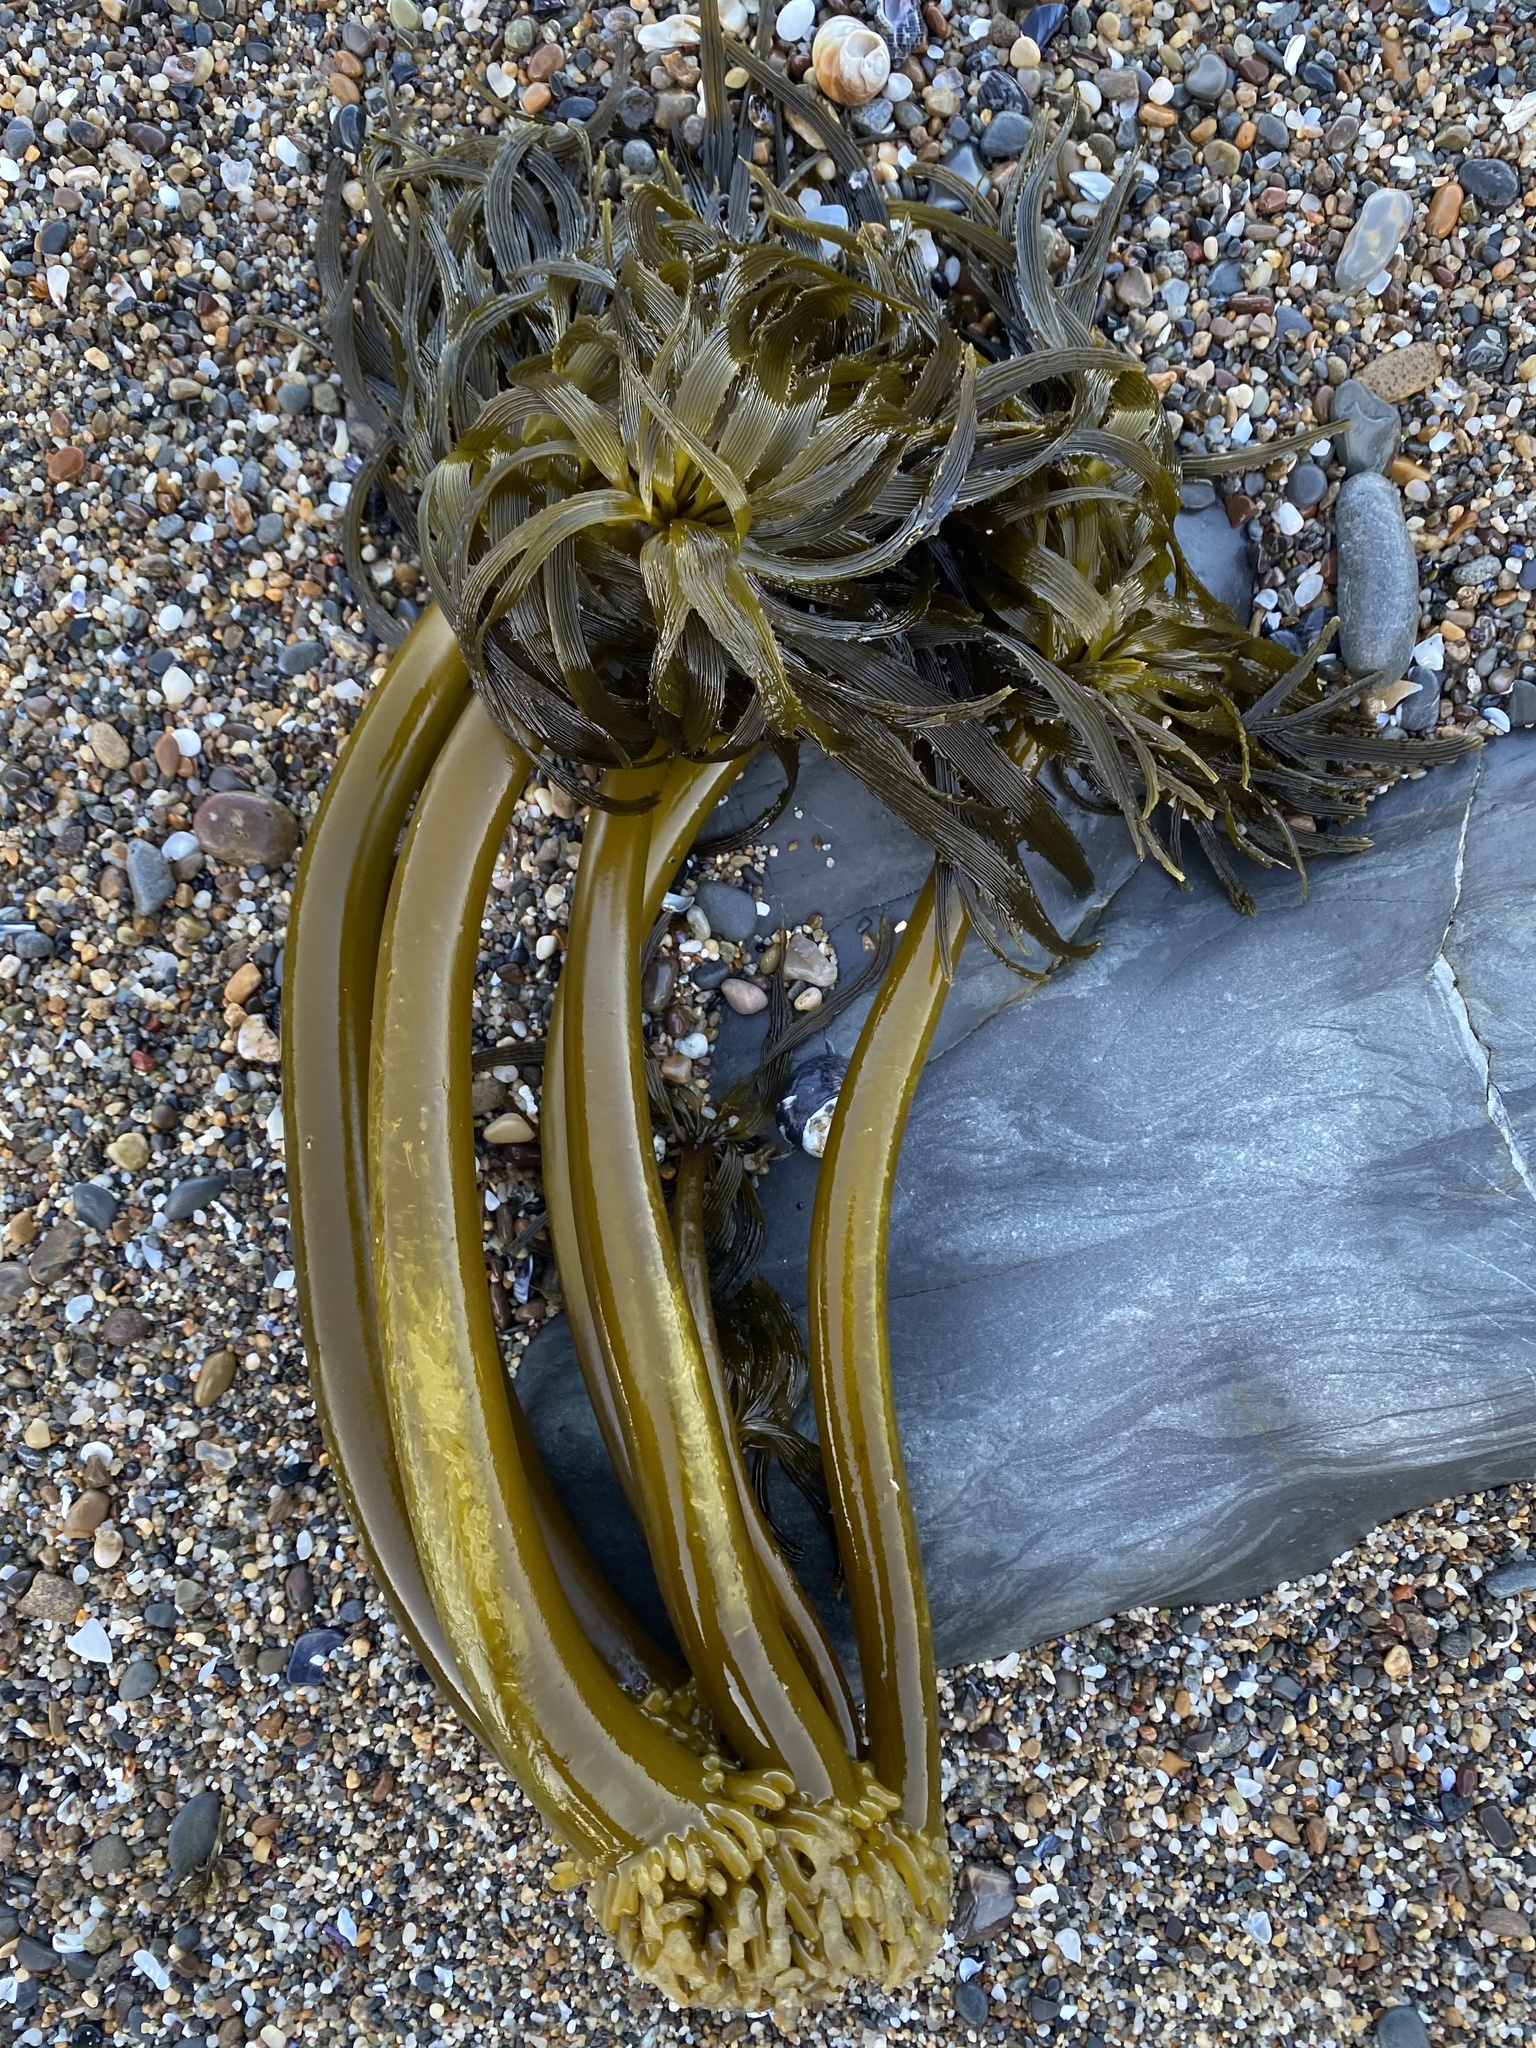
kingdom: Chromista
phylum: Ochrophyta
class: Phaeophyceae
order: Laminariales
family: Laminariaceae
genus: Postelsia
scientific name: Postelsia palmiformis
